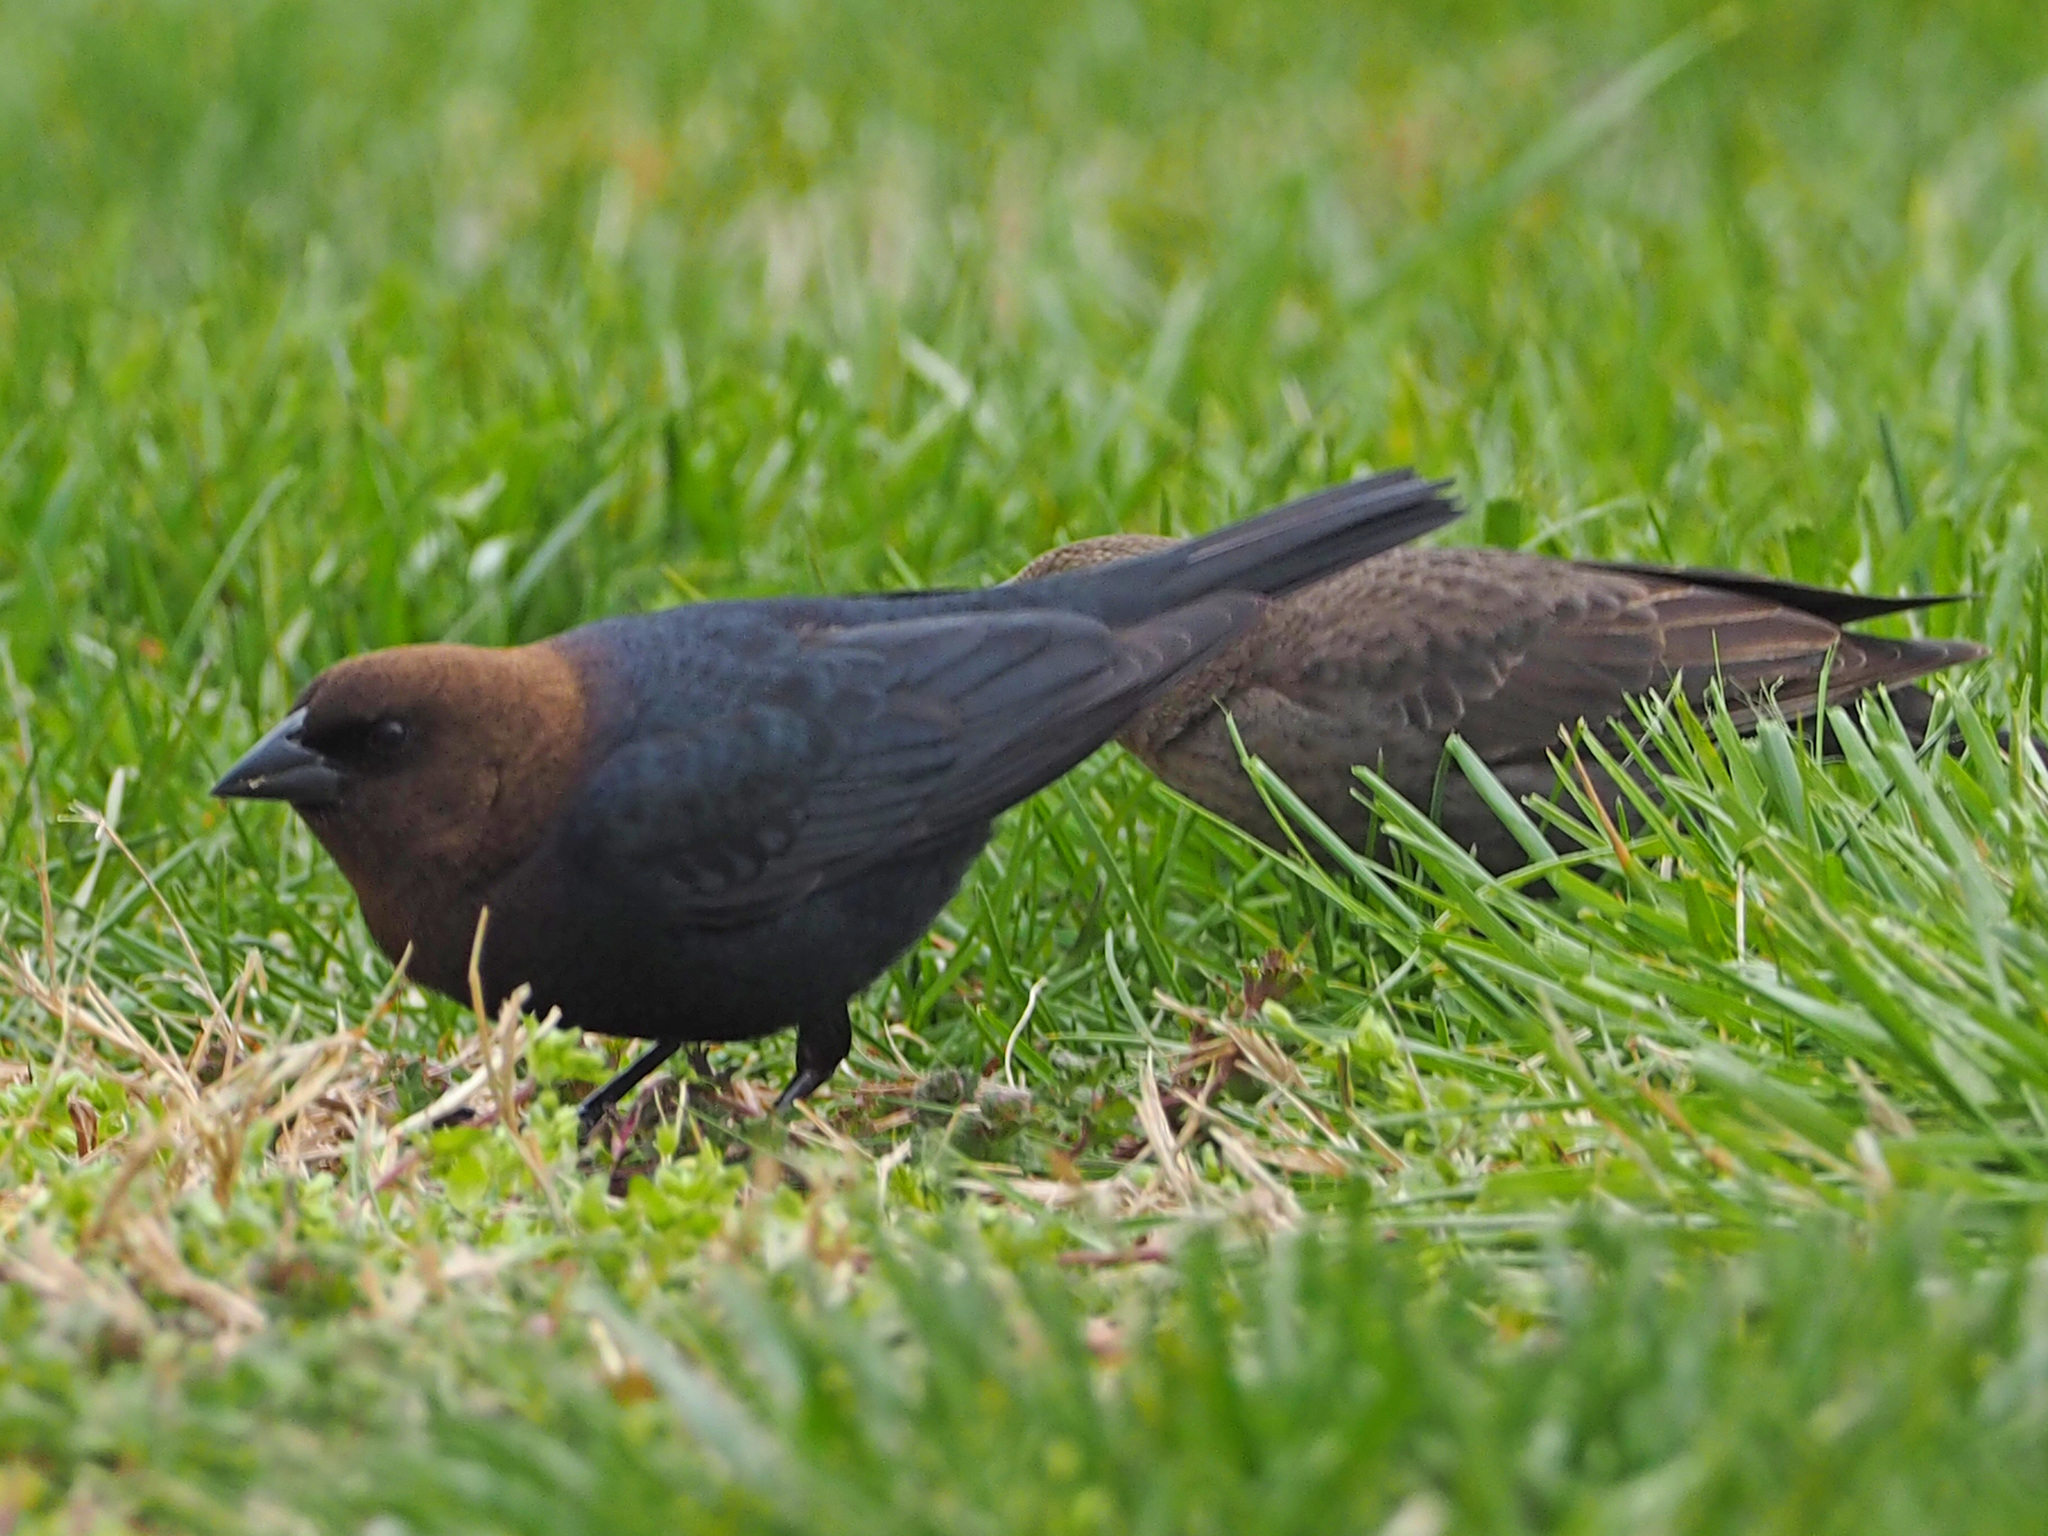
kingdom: Animalia
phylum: Chordata
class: Aves
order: Passeriformes
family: Icteridae
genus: Molothrus
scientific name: Molothrus ater
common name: Brown-headed cowbird
